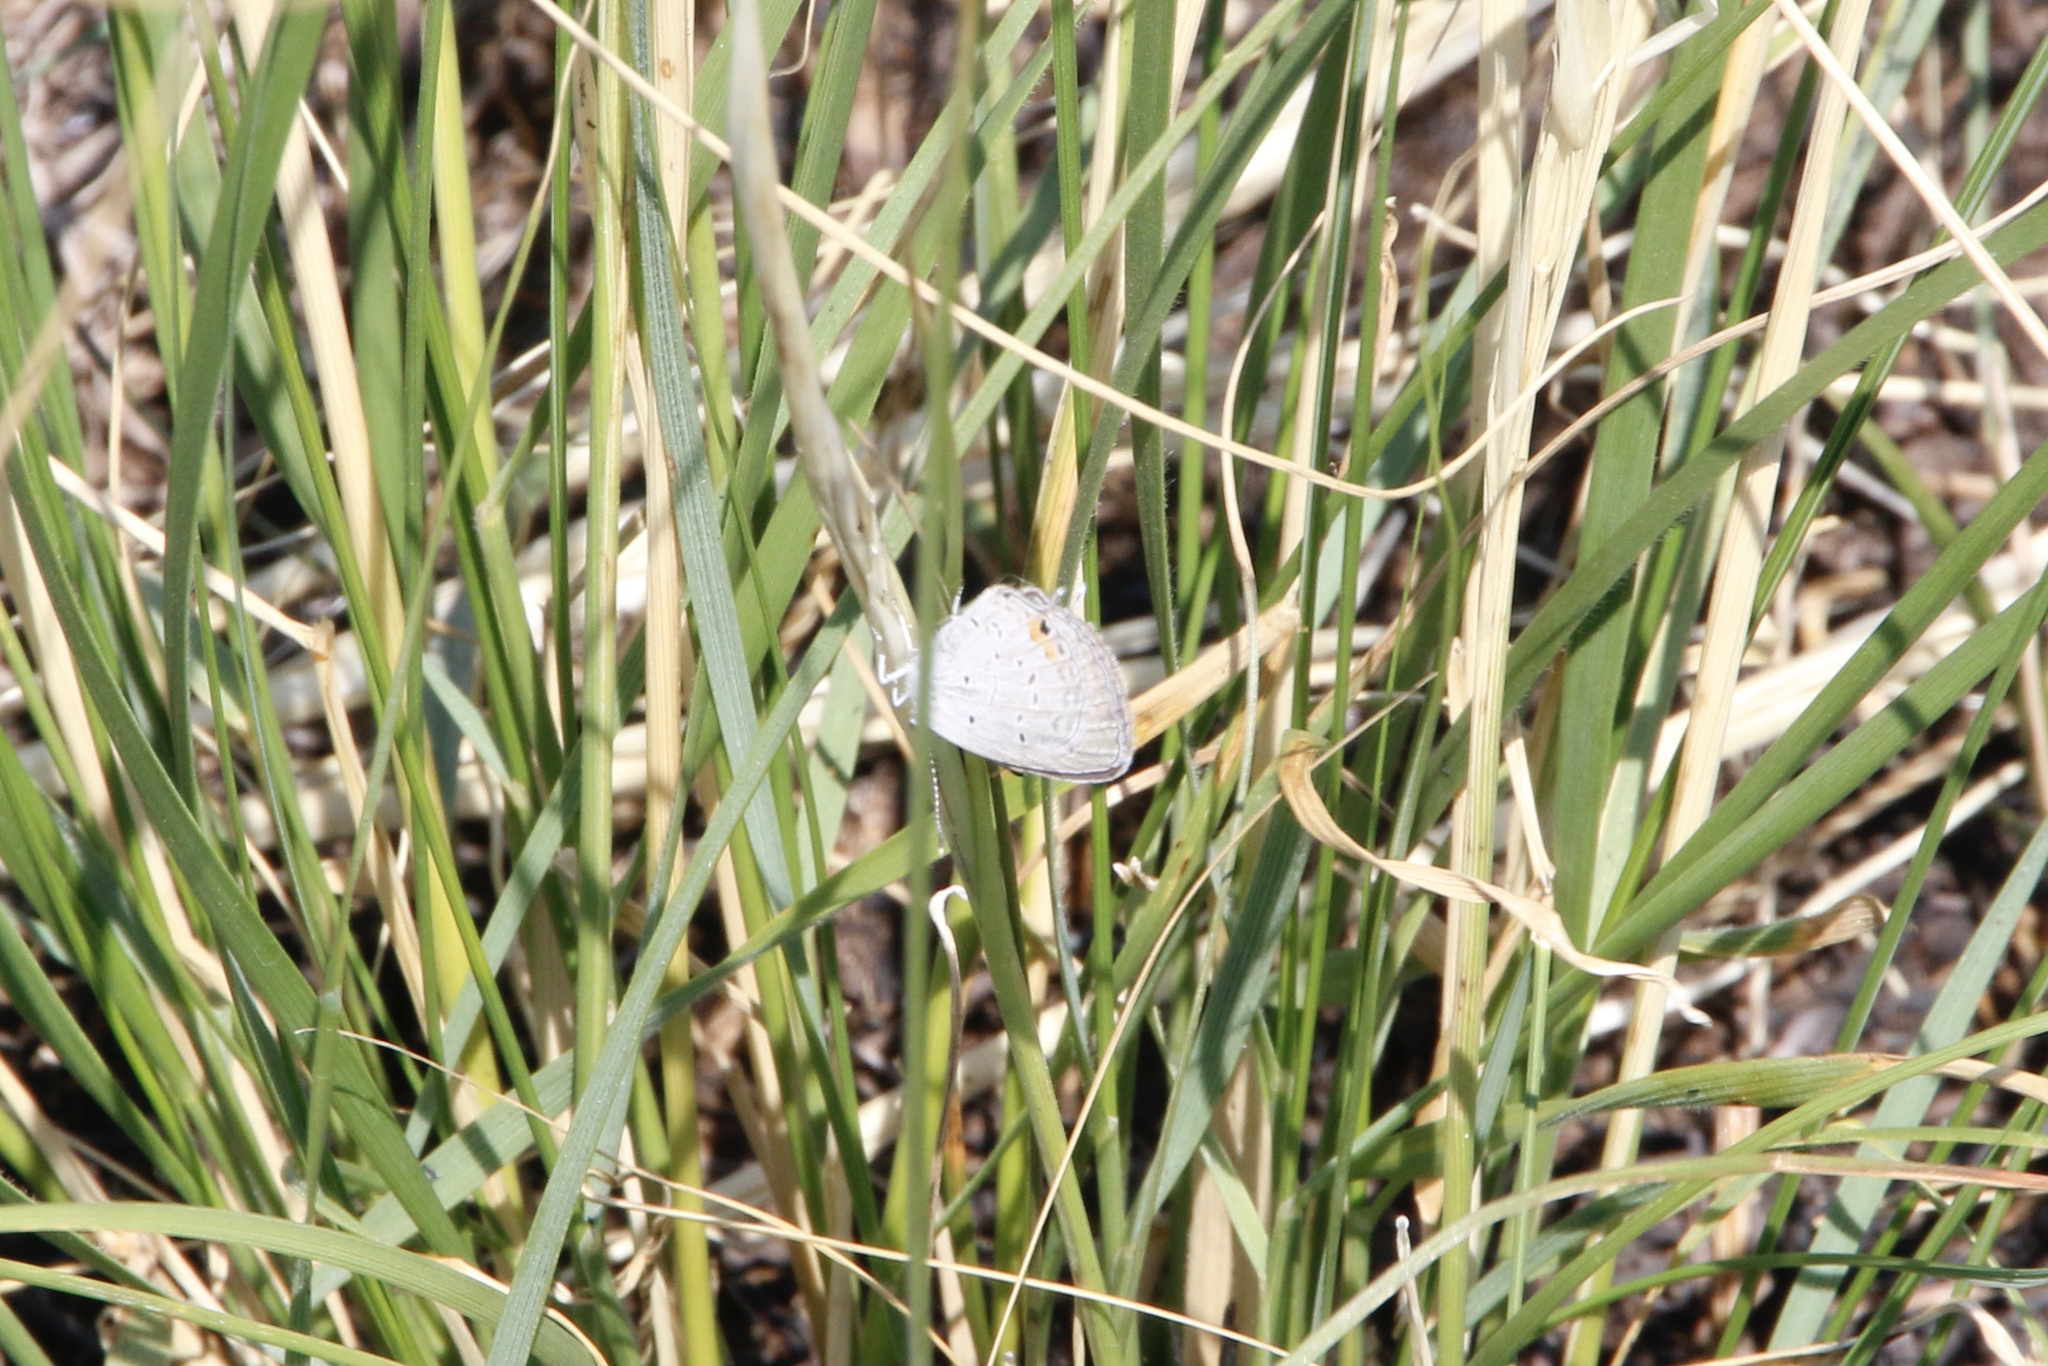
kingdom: Animalia
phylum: Arthropoda
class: Insecta
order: Lepidoptera
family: Lycaenidae
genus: Elkalyce
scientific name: Elkalyce comyntas
